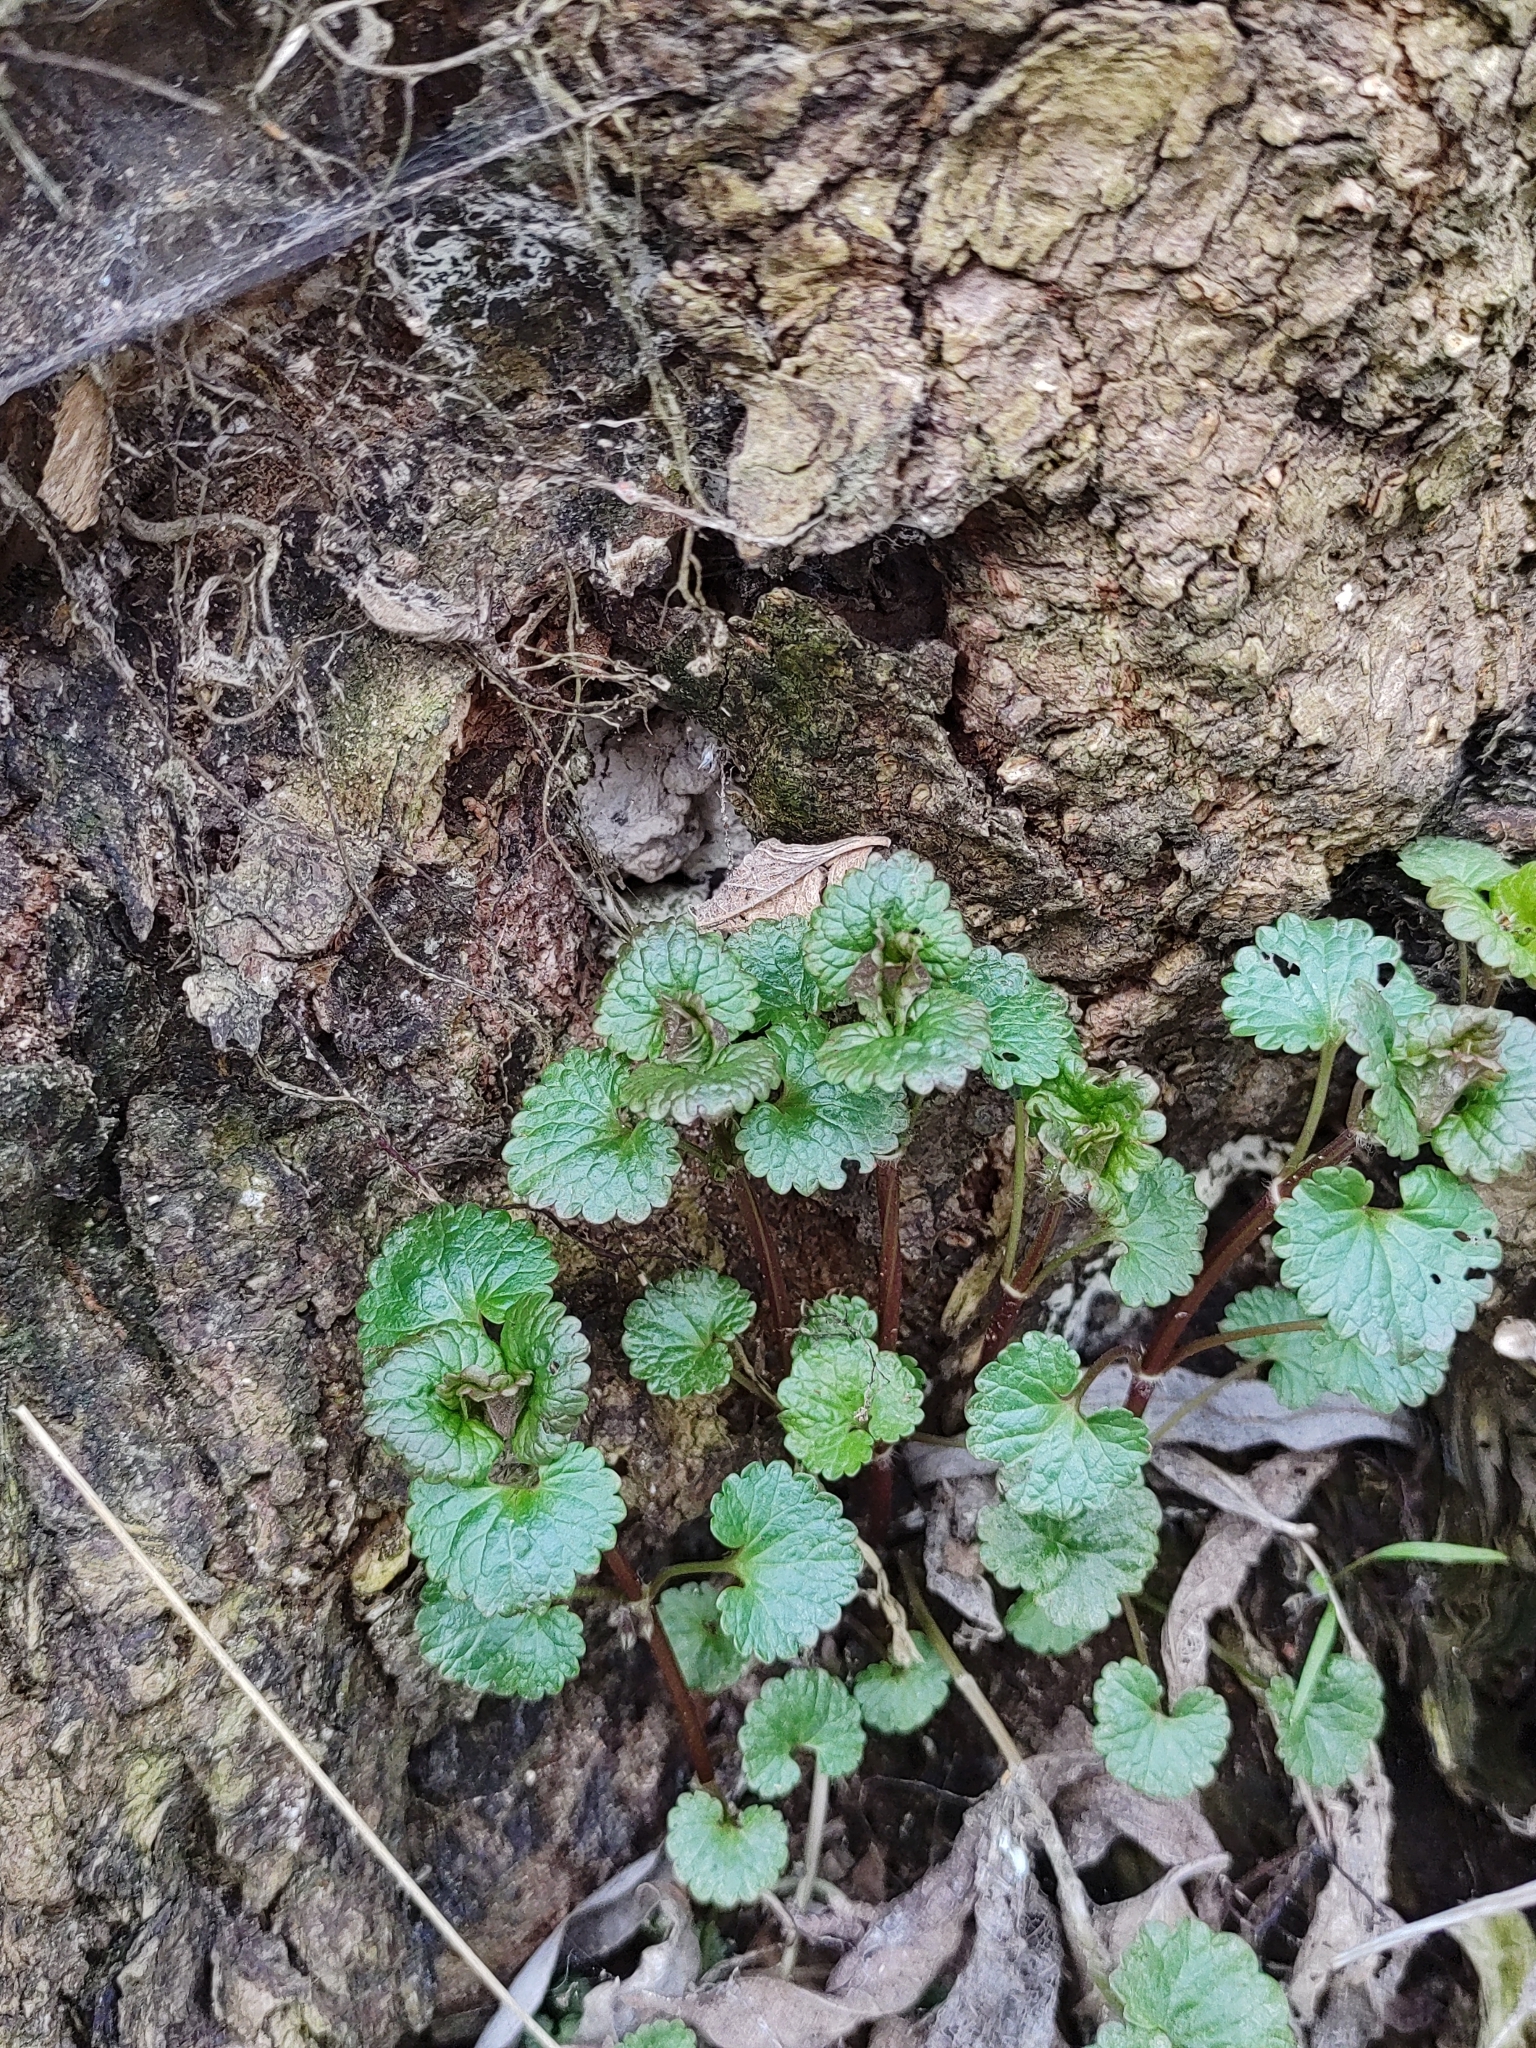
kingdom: Plantae
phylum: Tracheophyta
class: Magnoliopsida
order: Lamiales
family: Lamiaceae
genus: Glechoma
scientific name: Glechoma hederacea
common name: Ground ivy
